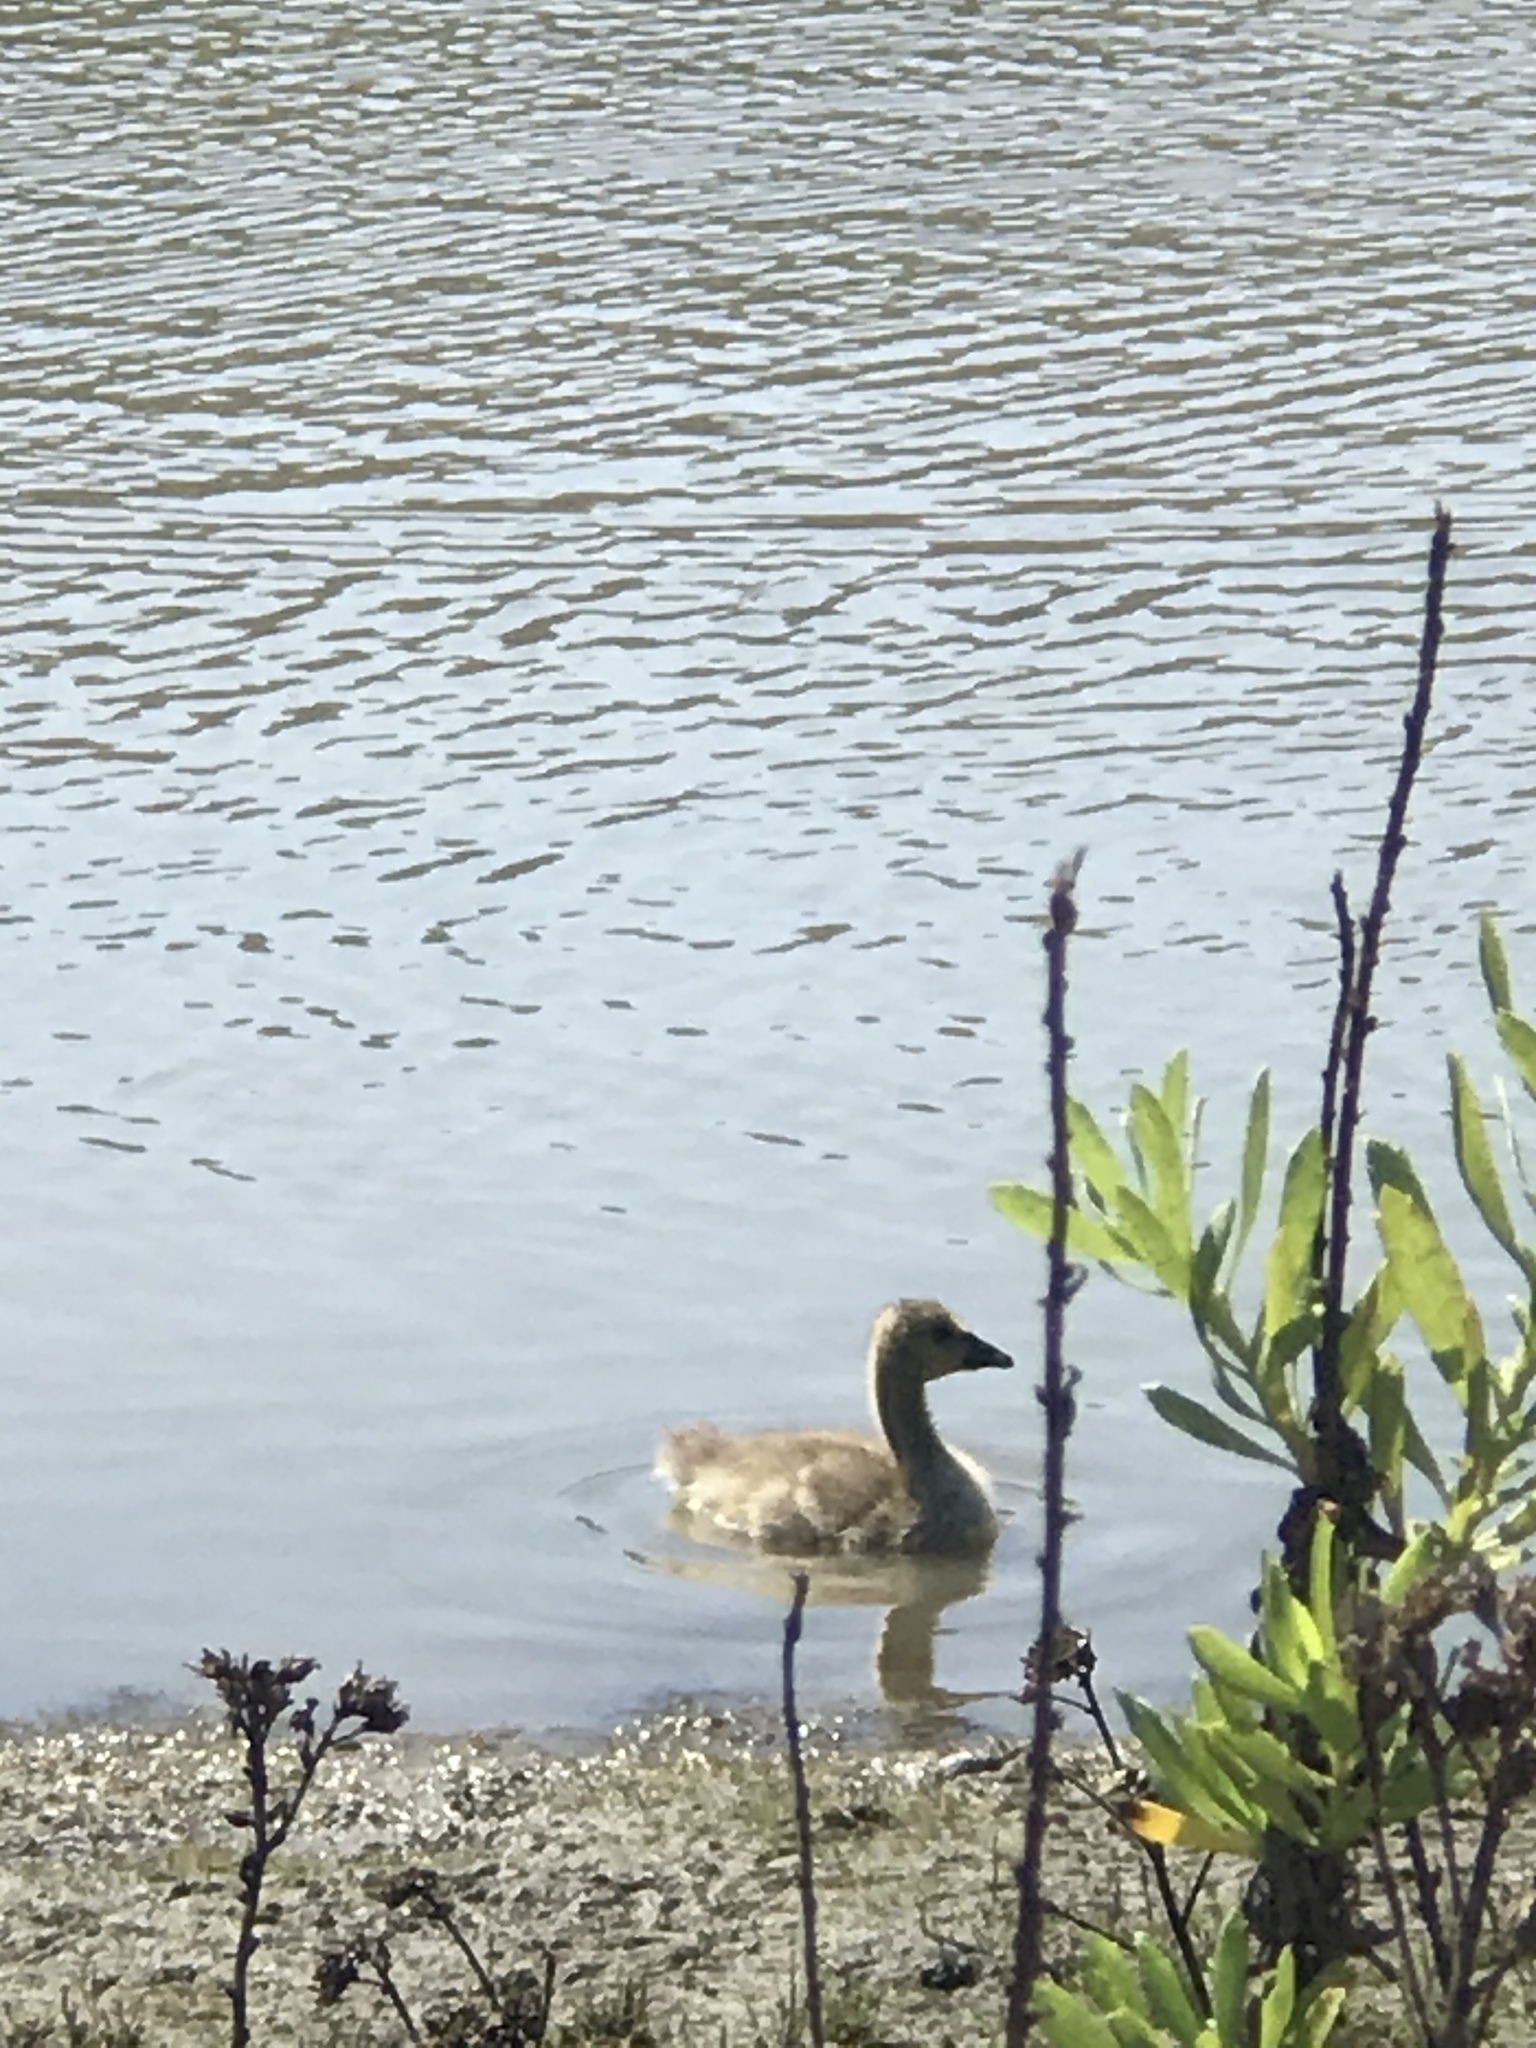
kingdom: Animalia
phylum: Chordata
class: Aves
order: Anseriformes
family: Anatidae
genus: Branta
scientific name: Branta canadensis
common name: Canada goose
